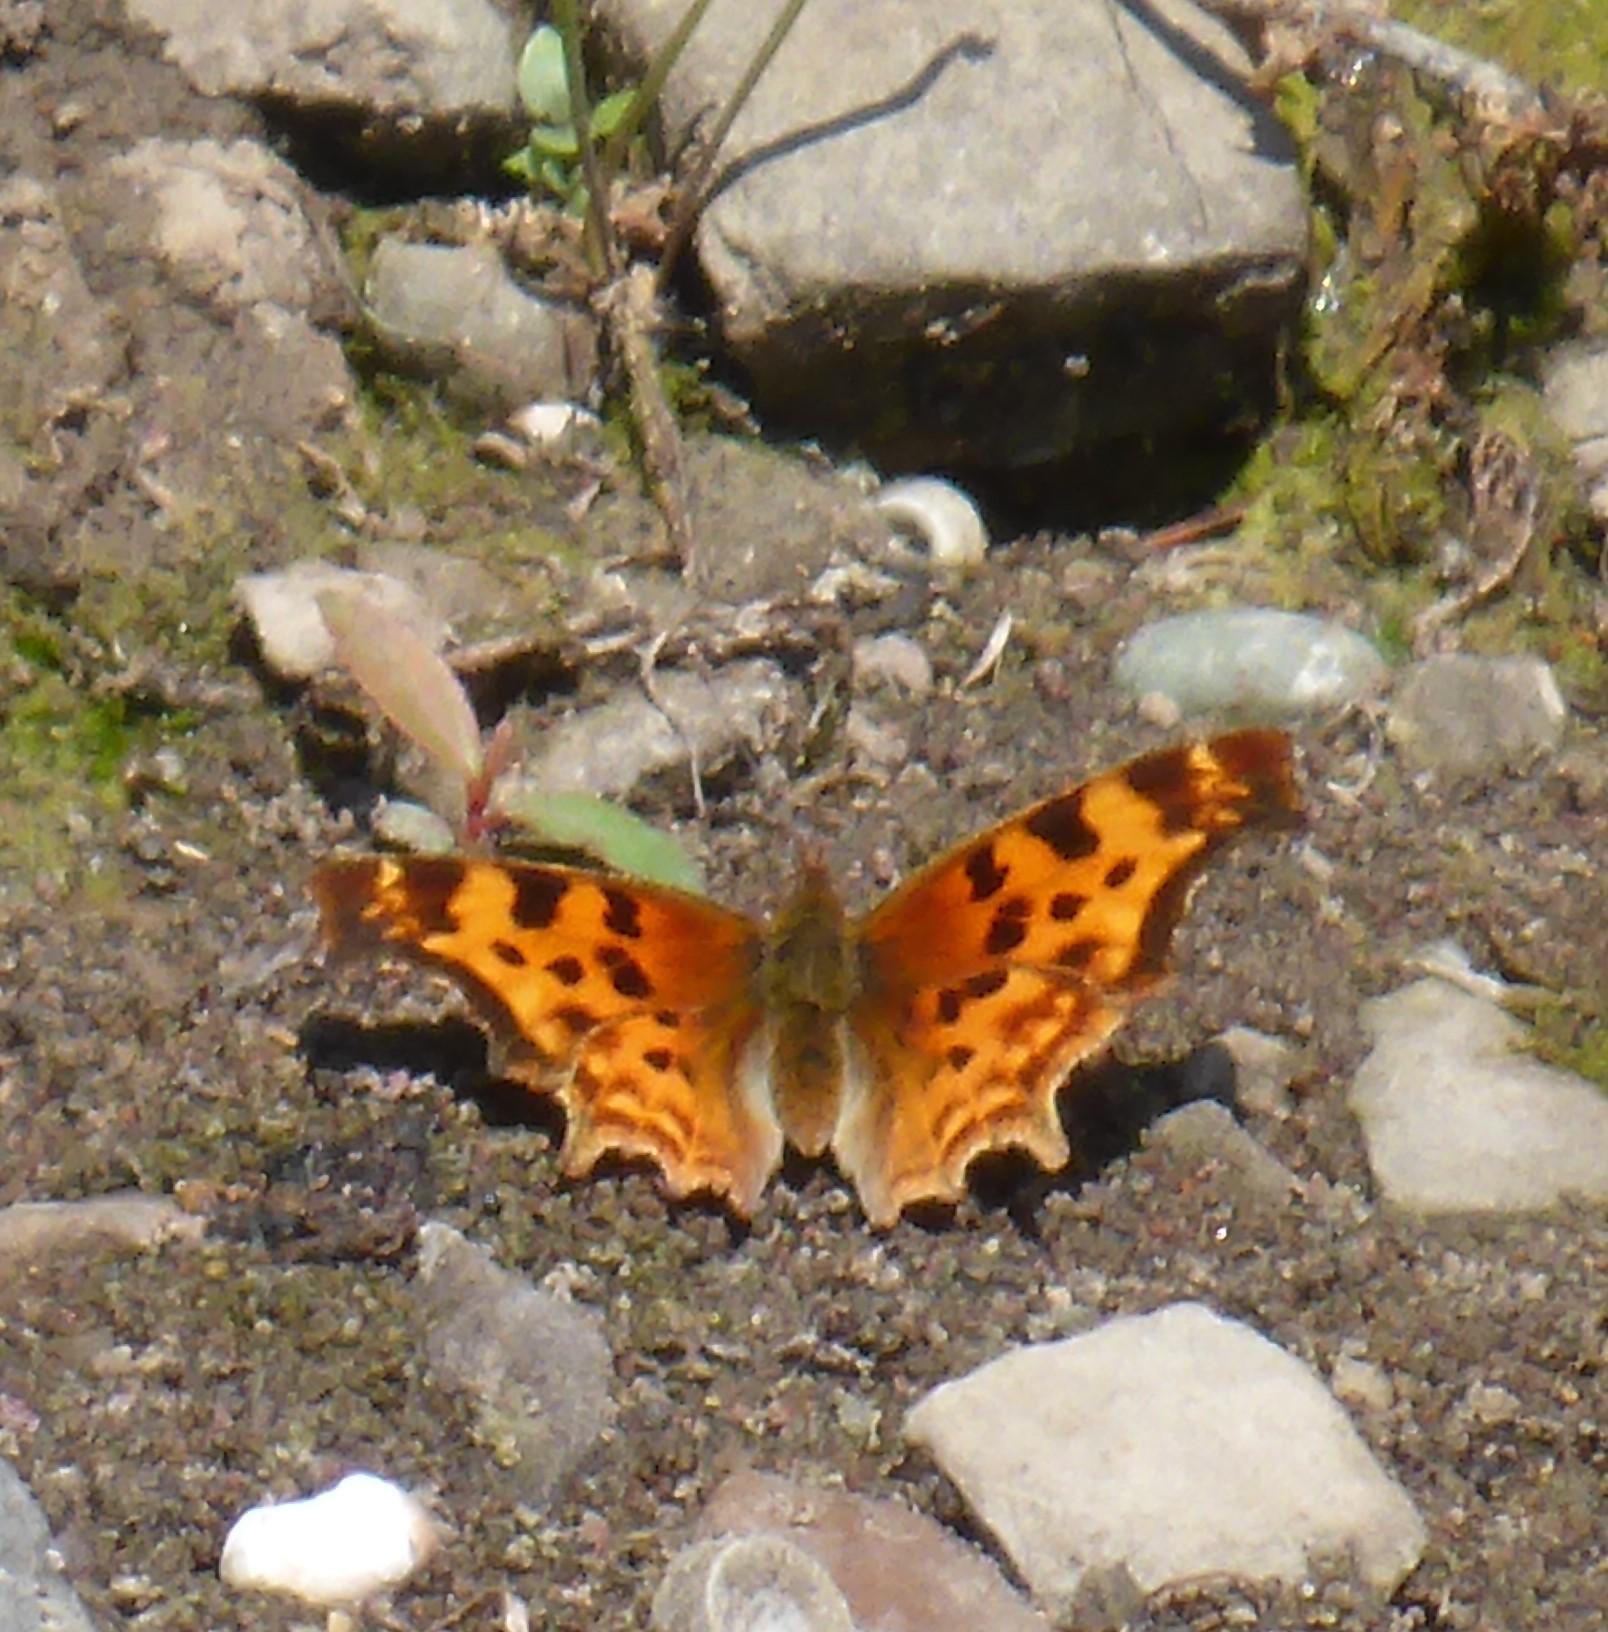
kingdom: Animalia
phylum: Arthropoda
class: Insecta
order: Lepidoptera
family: Nymphalidae
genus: Polygonia
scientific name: Polygonia satyrus
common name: Satyr angle wing
